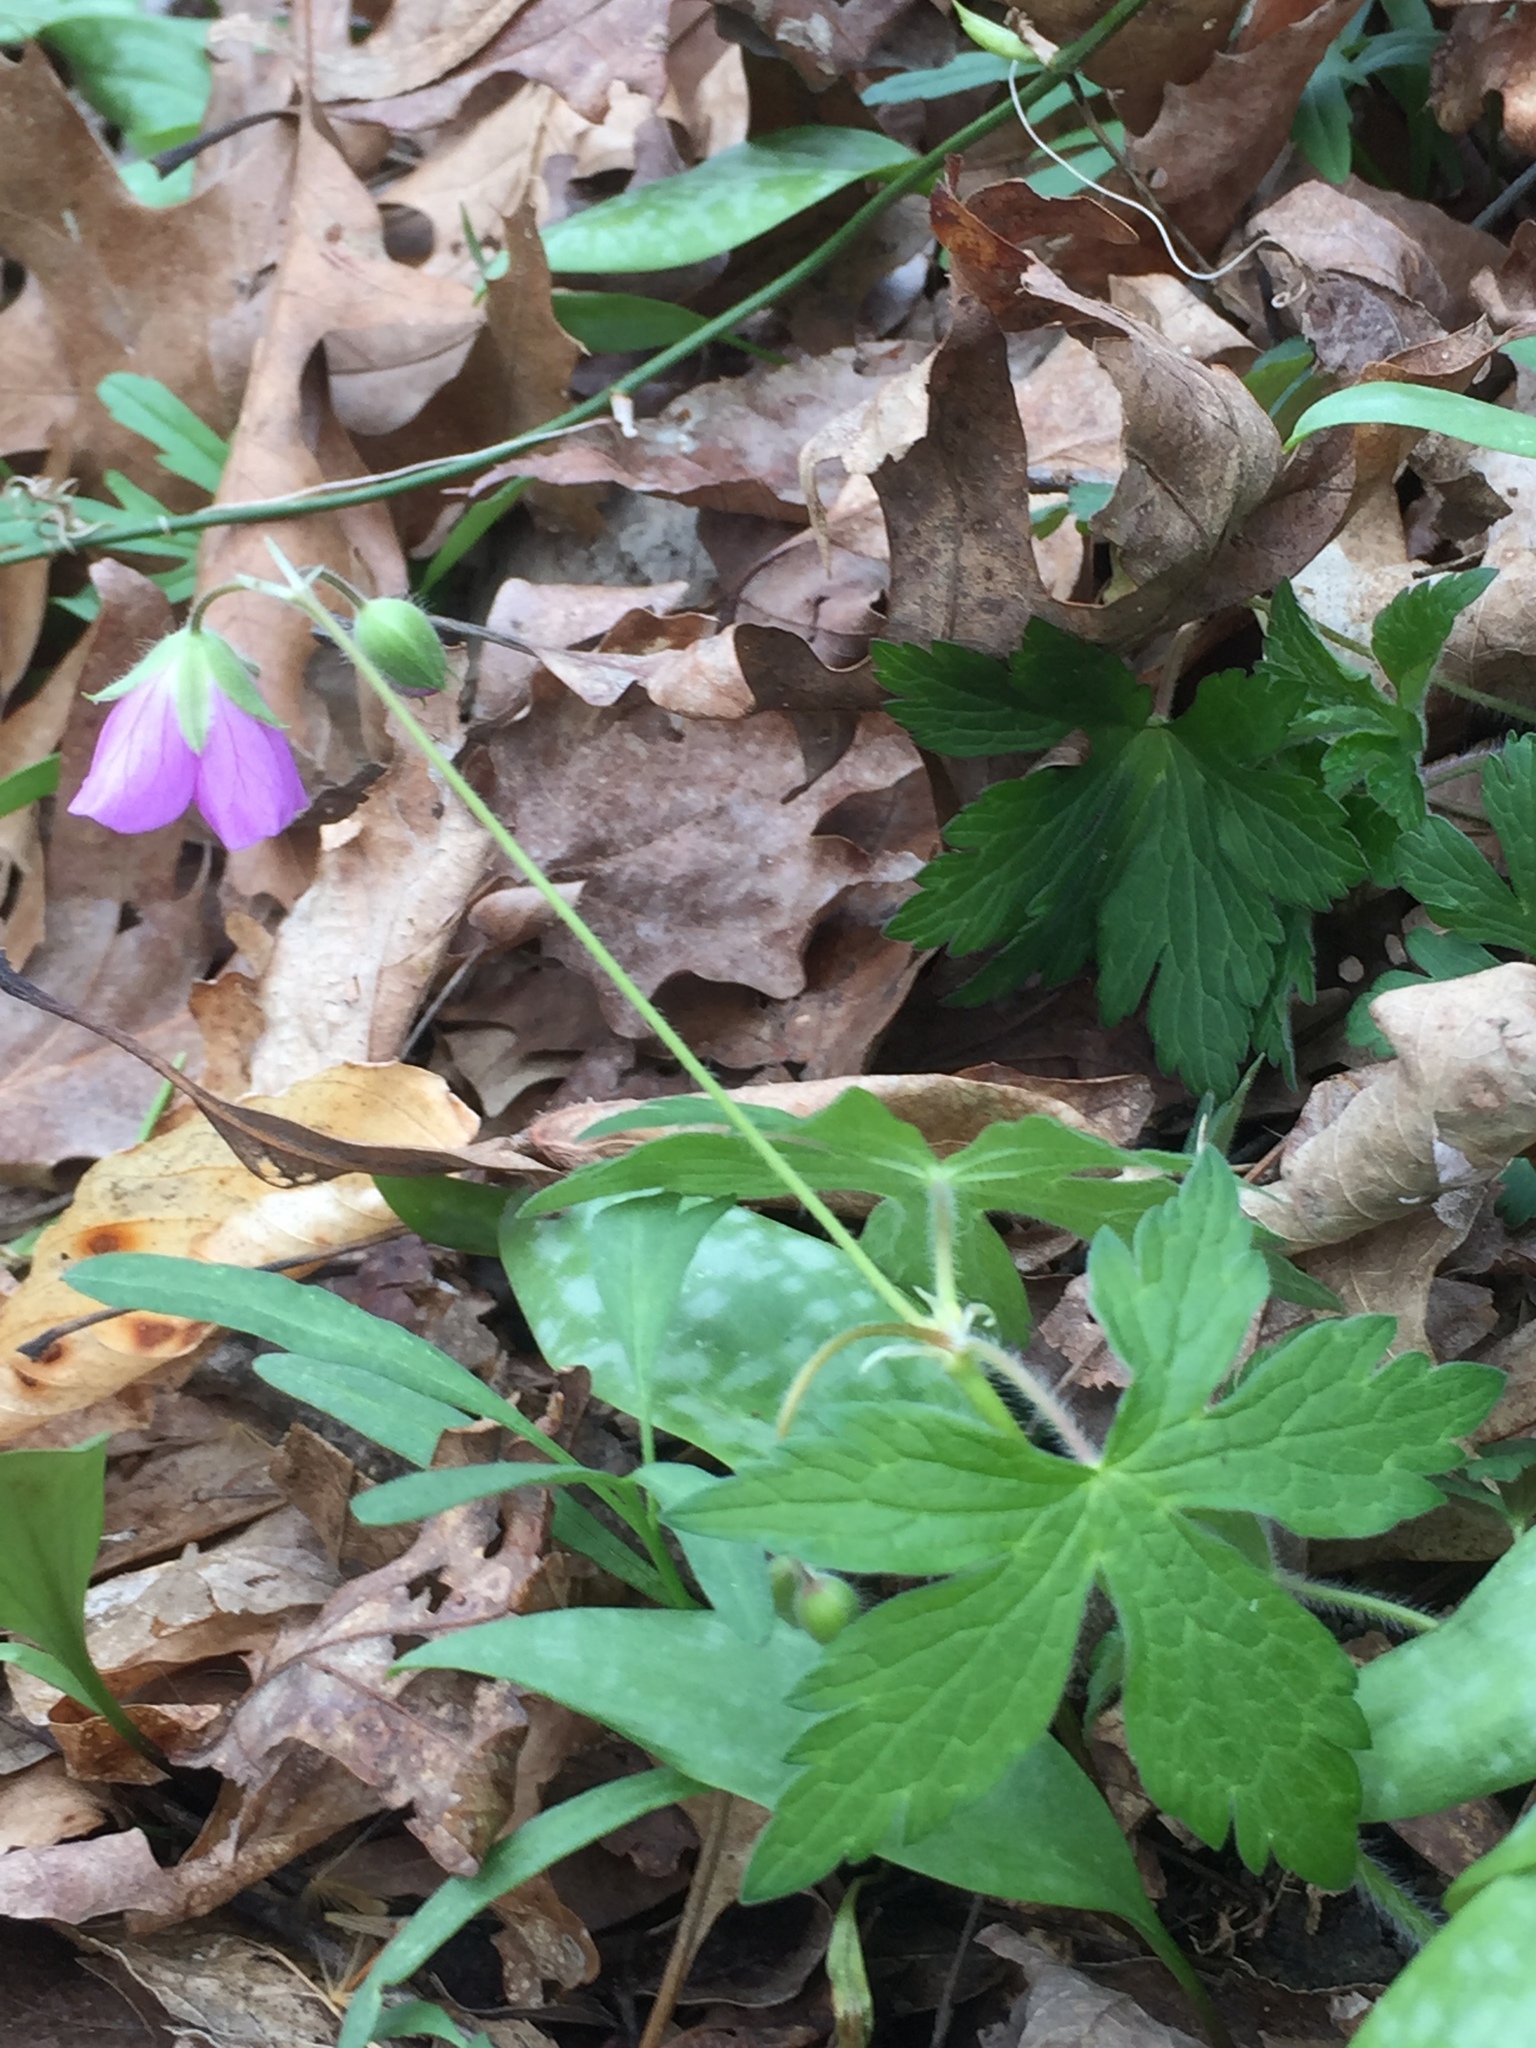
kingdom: Plantae
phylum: Tracheophyta
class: Magnoliopsida
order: Geraniales
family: Geraniaceae
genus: Geranium
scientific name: Geranium maculatum
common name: Spotted geranium
